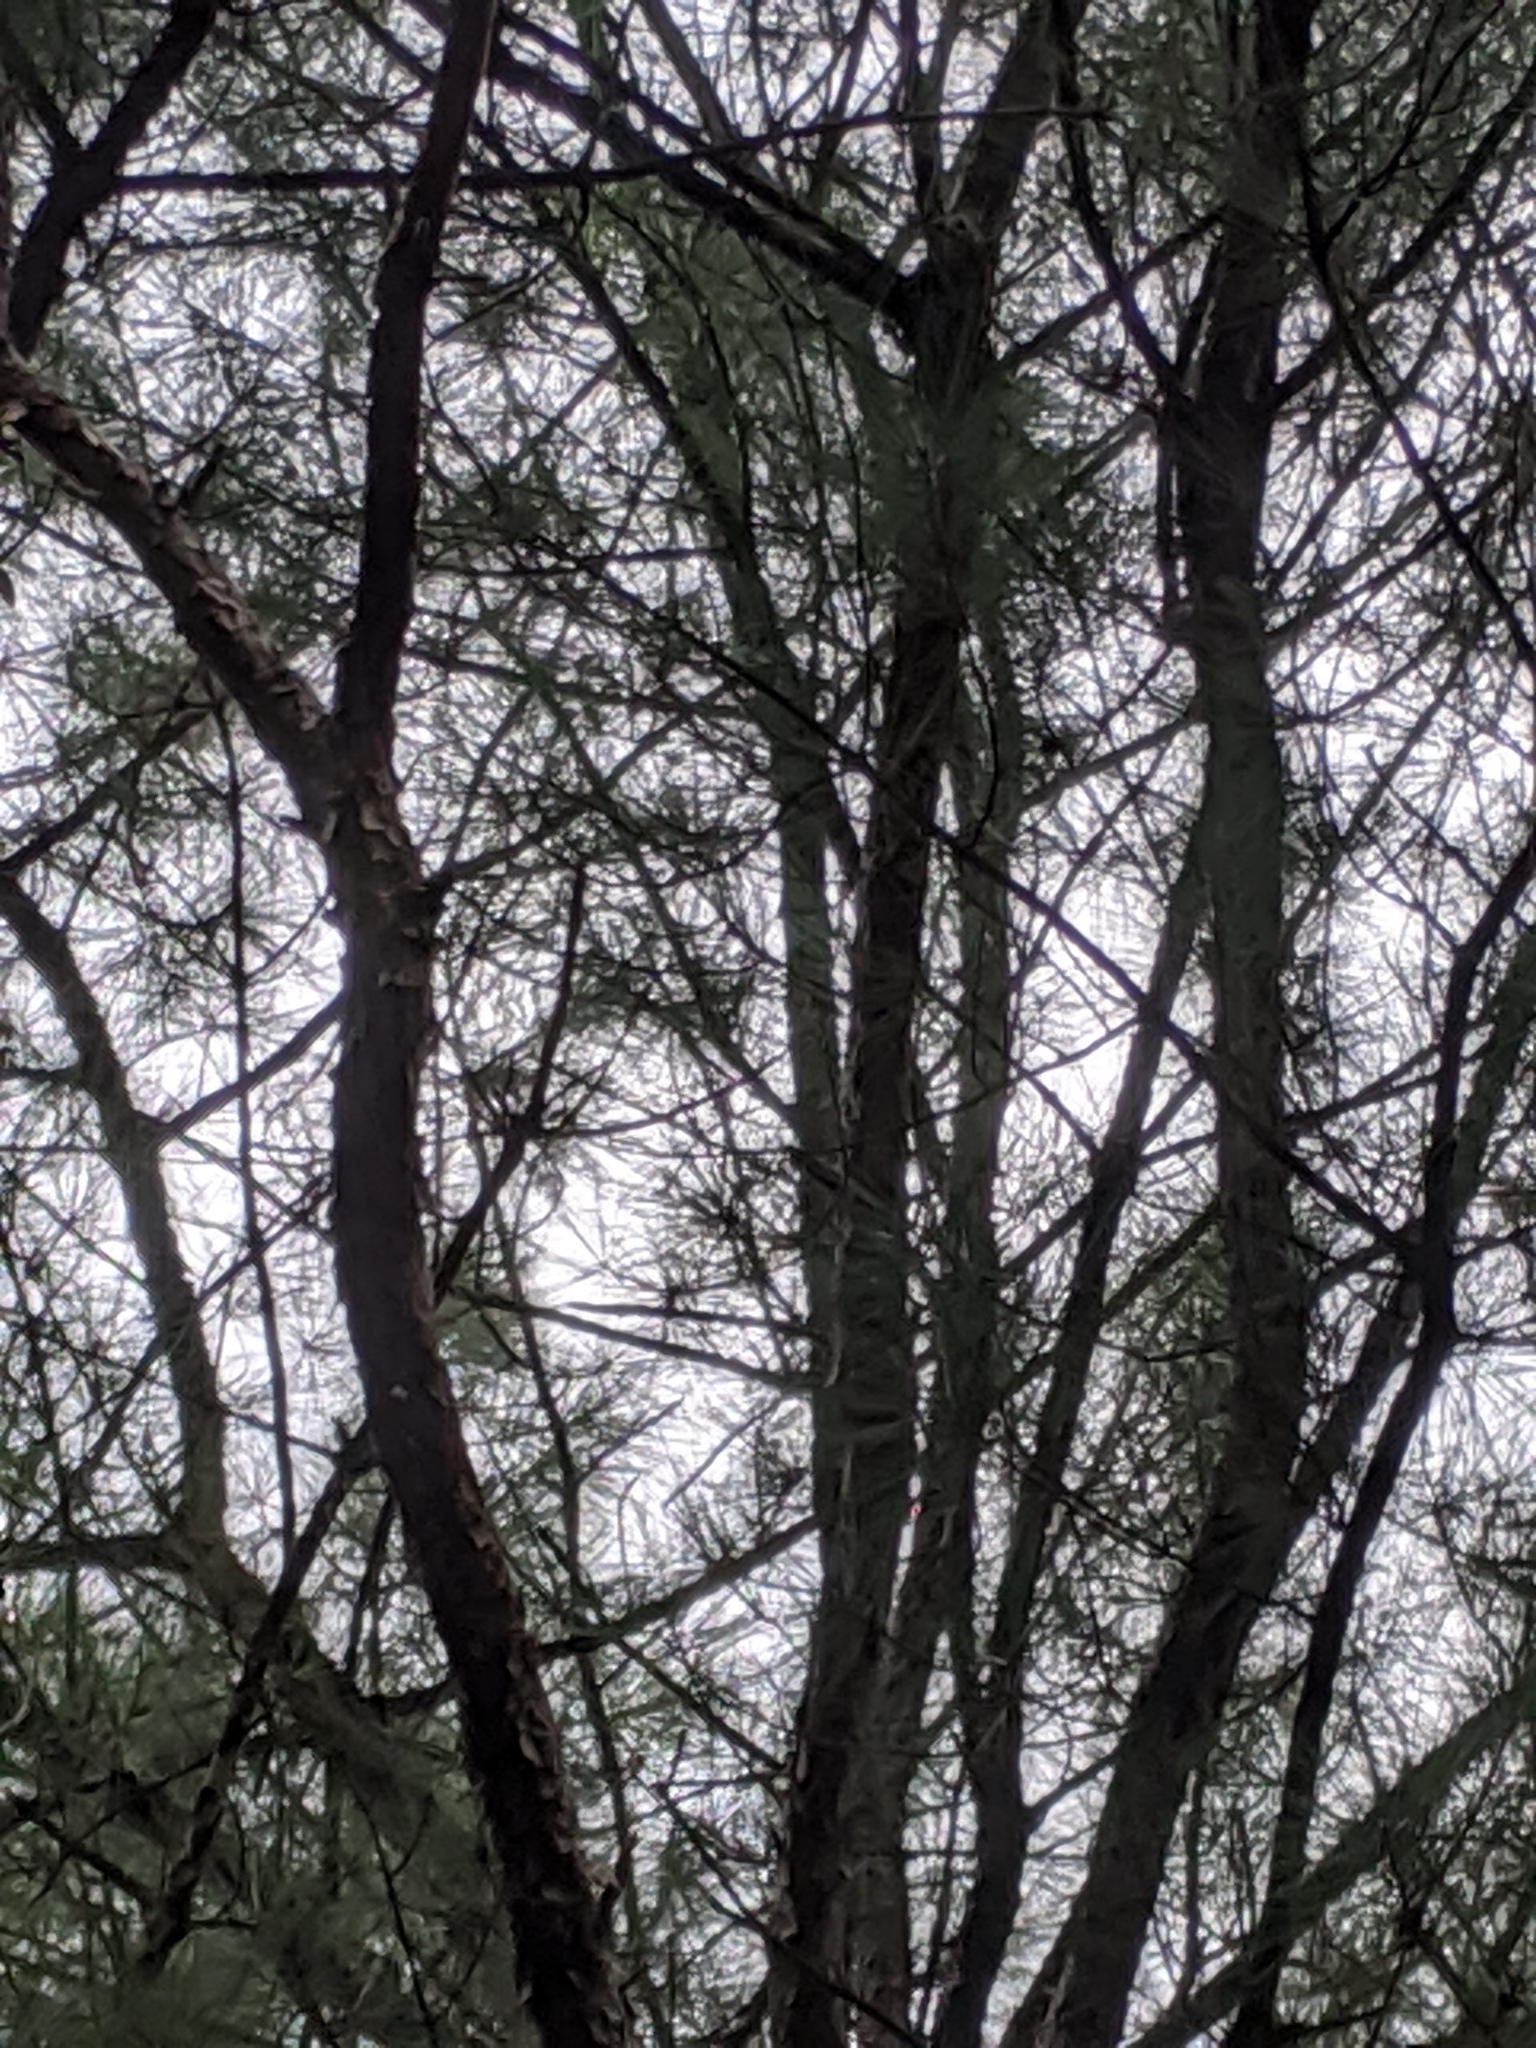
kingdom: Plantae
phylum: Tracheophyta
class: Pinopsida
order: Pinales
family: Pinaceae
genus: Pinus
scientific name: Pinus taeda
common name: Loblolly pine
